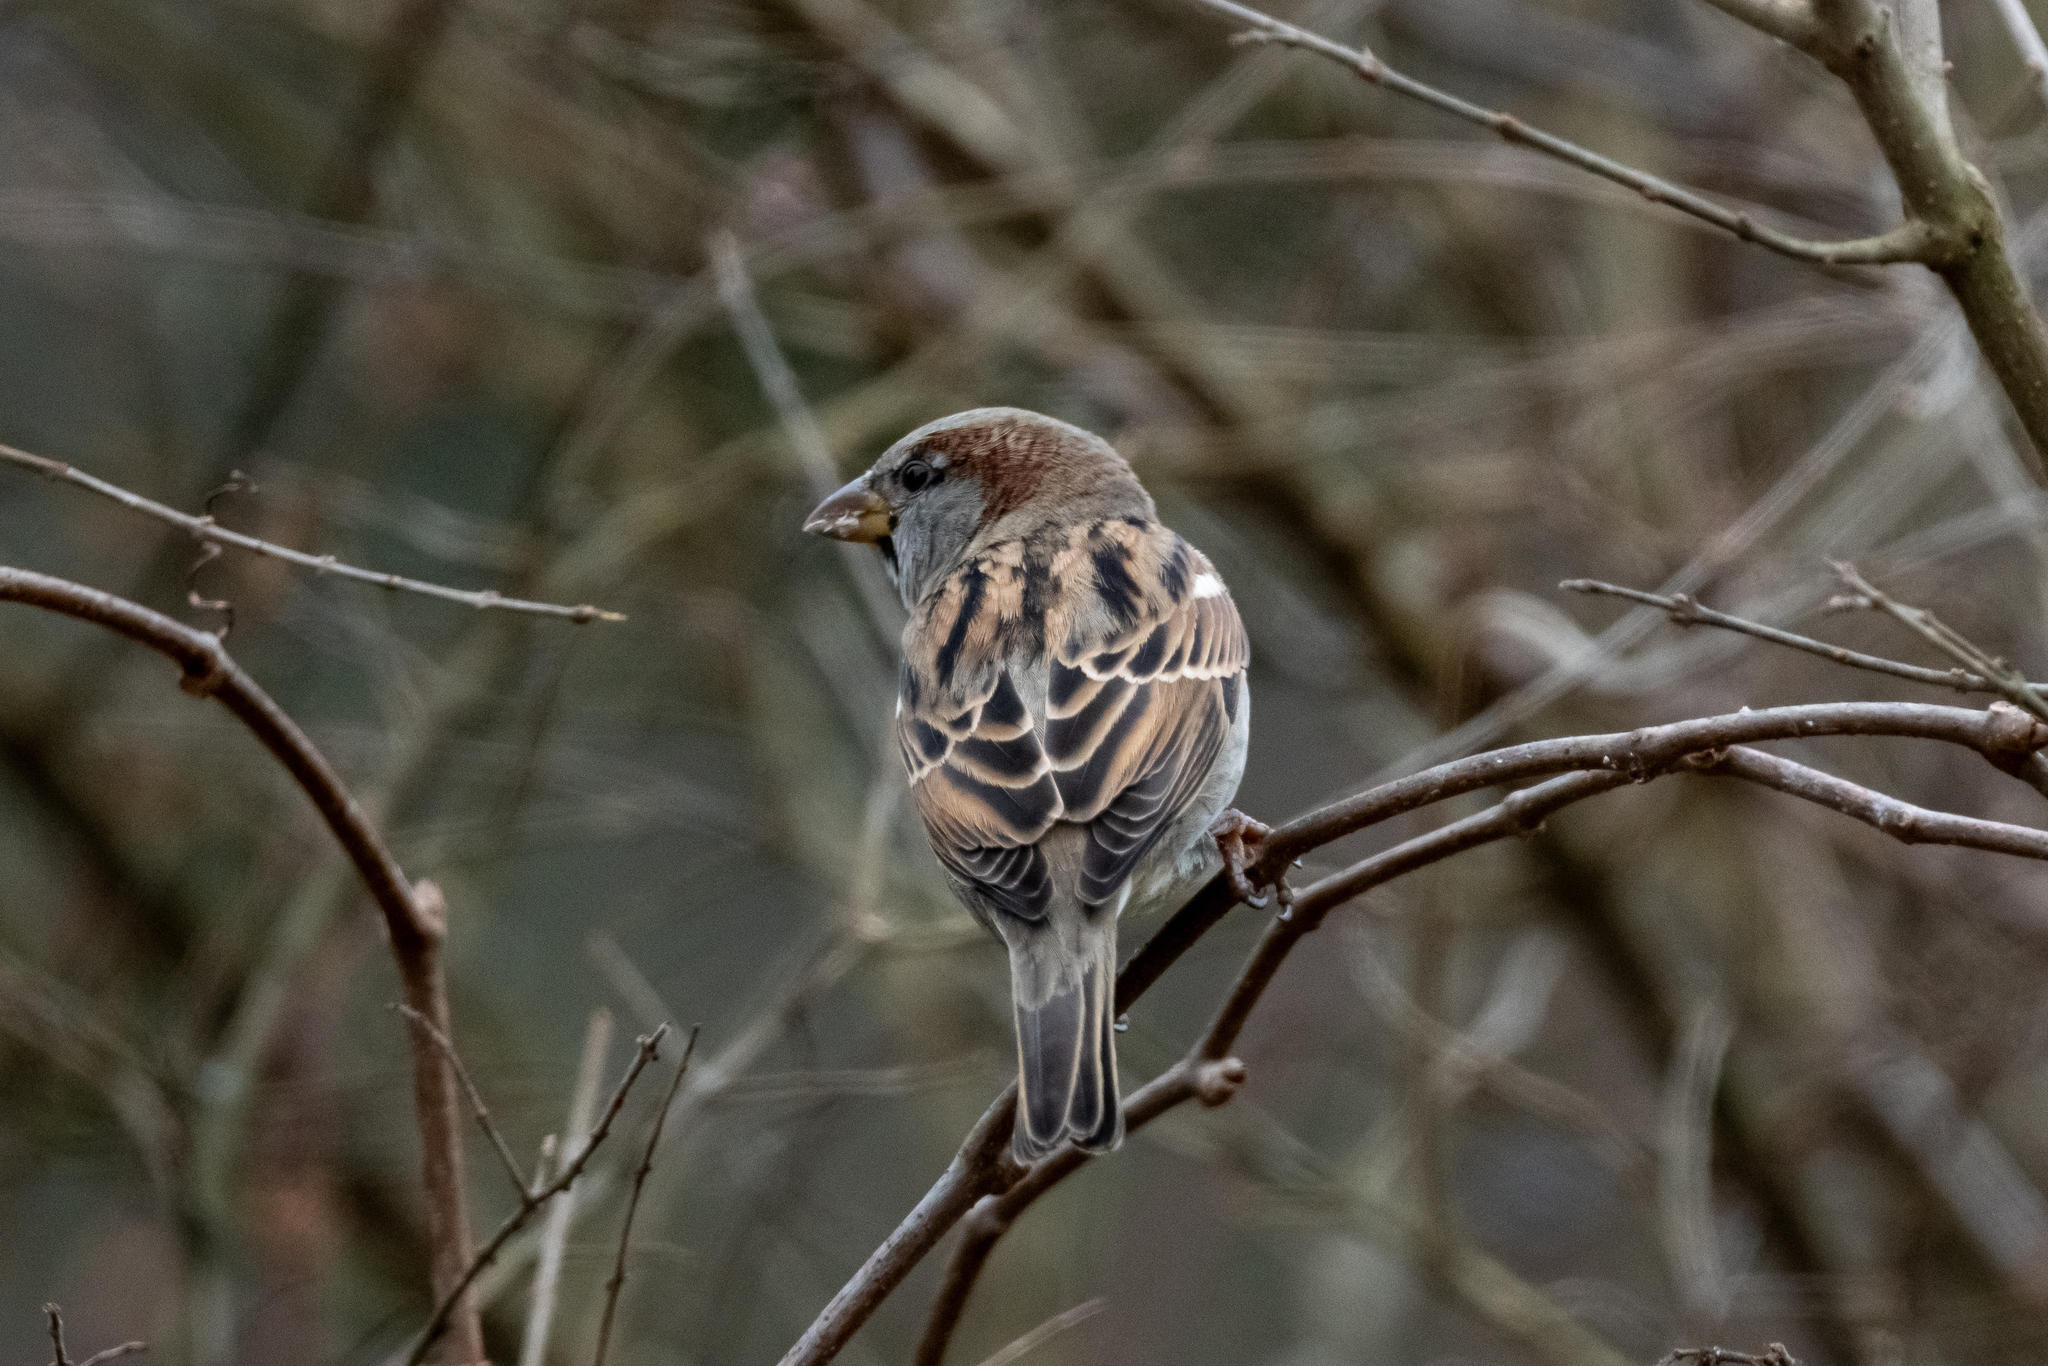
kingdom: Animalia
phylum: Chordata
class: Aves
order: Passeriformes
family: Passeridae
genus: Passer
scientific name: Passer domesticus
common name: House sparrow
